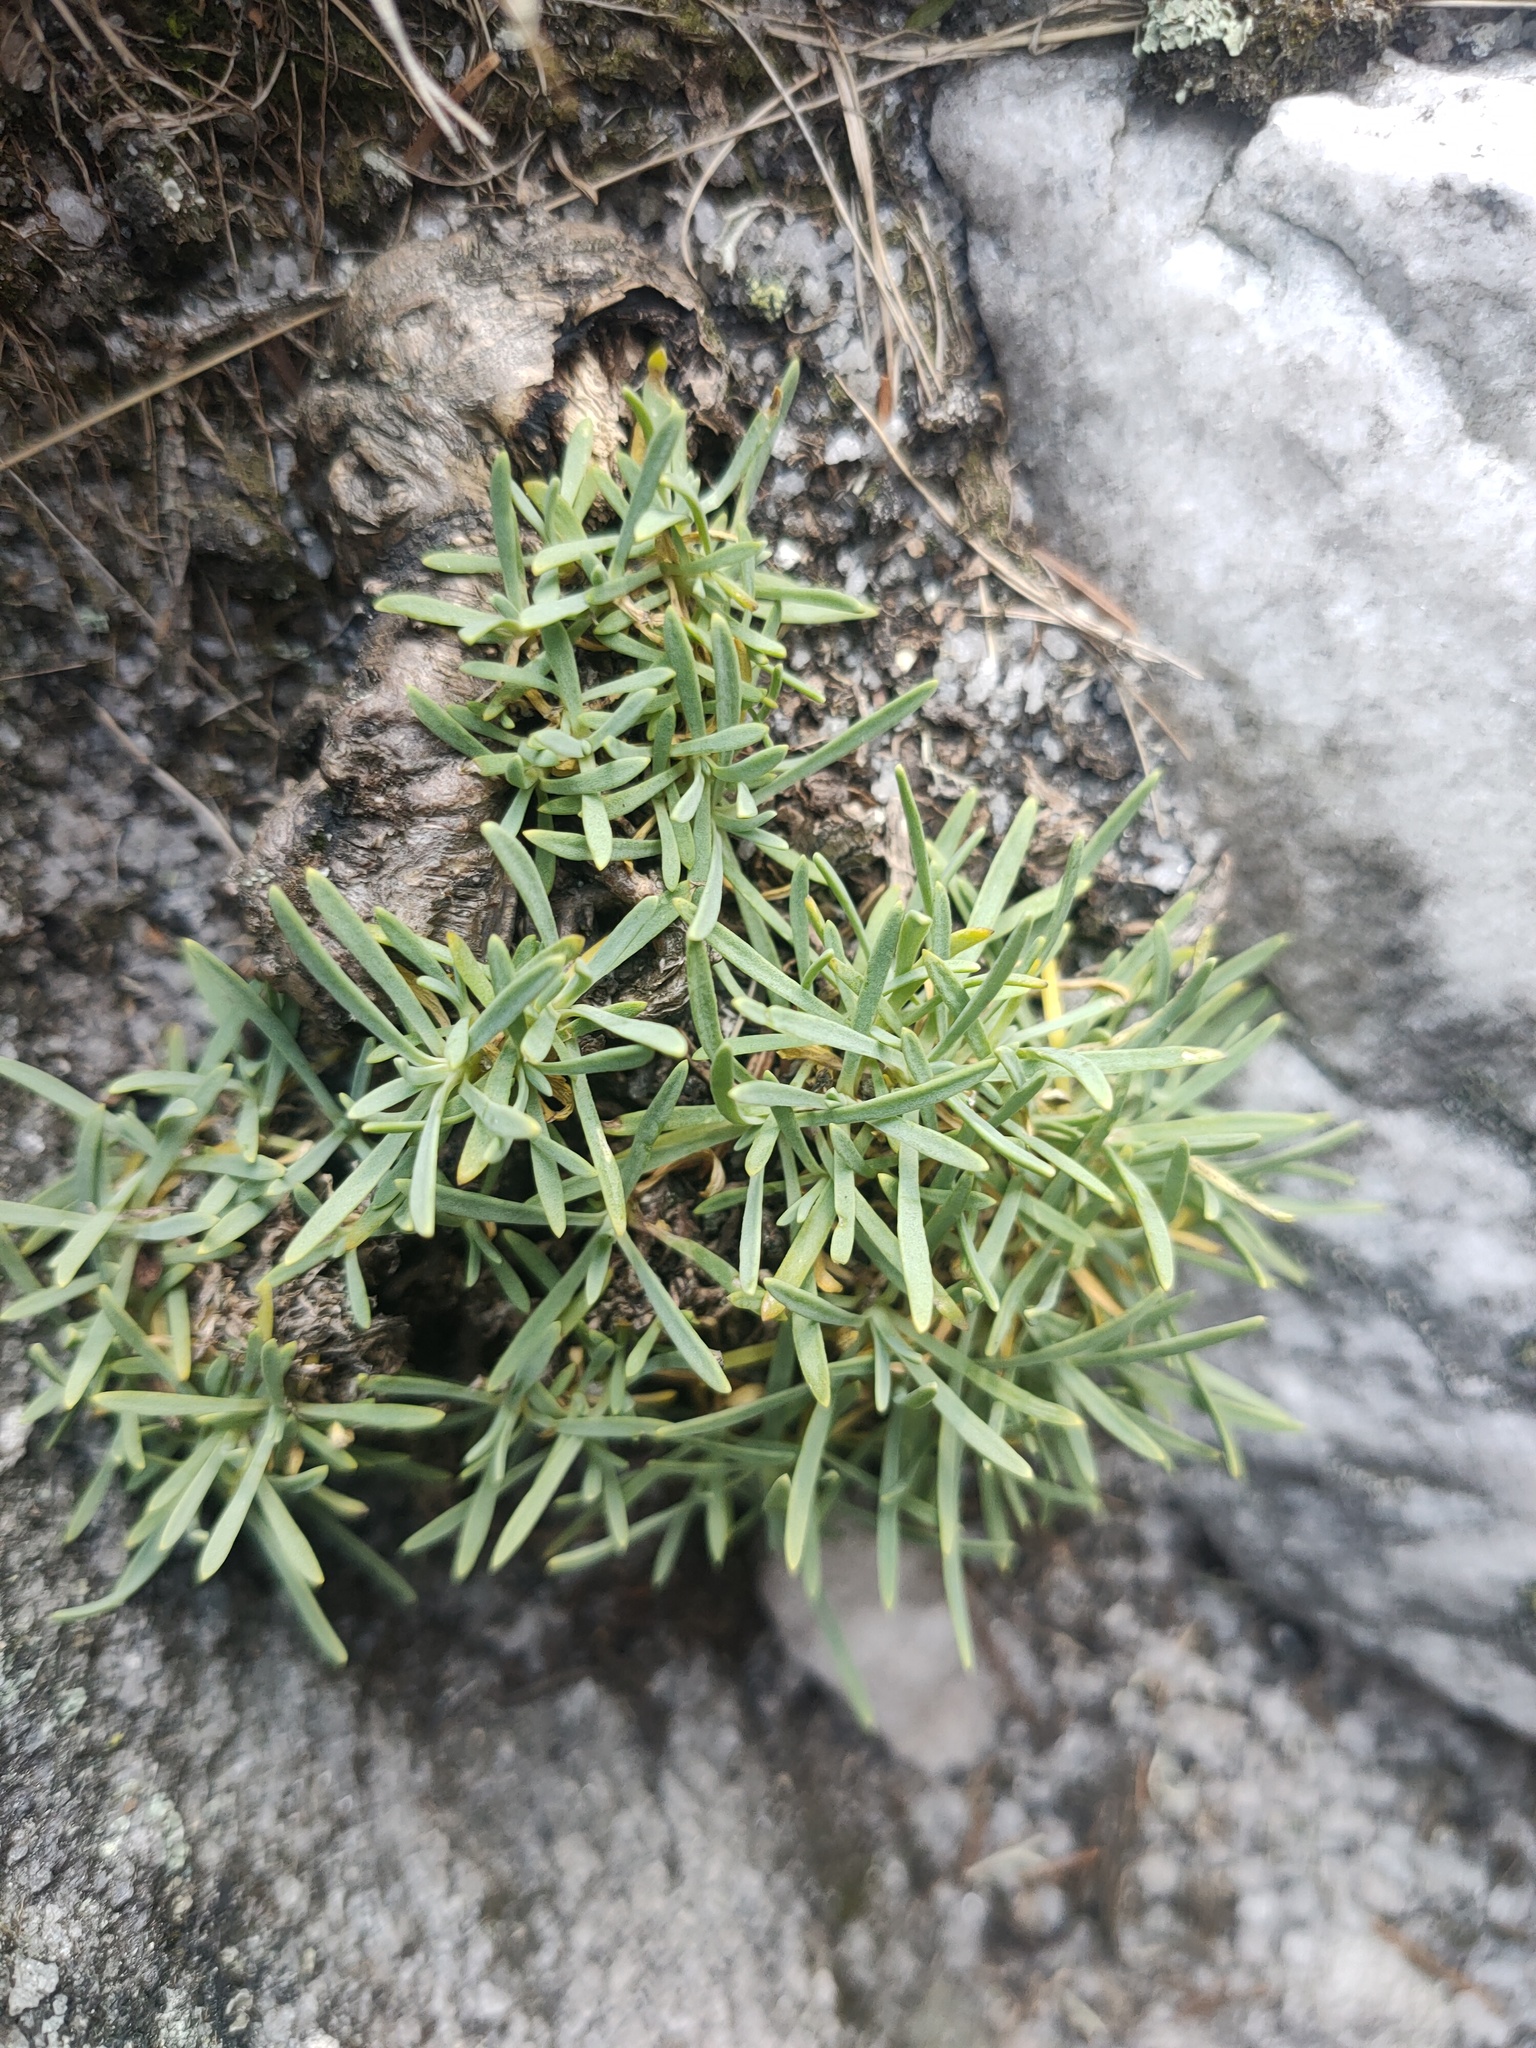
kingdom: Plantae
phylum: Tracheophyta
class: Magnoliopsida
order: Caryophyllales
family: Caryophyllaceae
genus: Gypsophila
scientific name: Gypsophila uralensis
